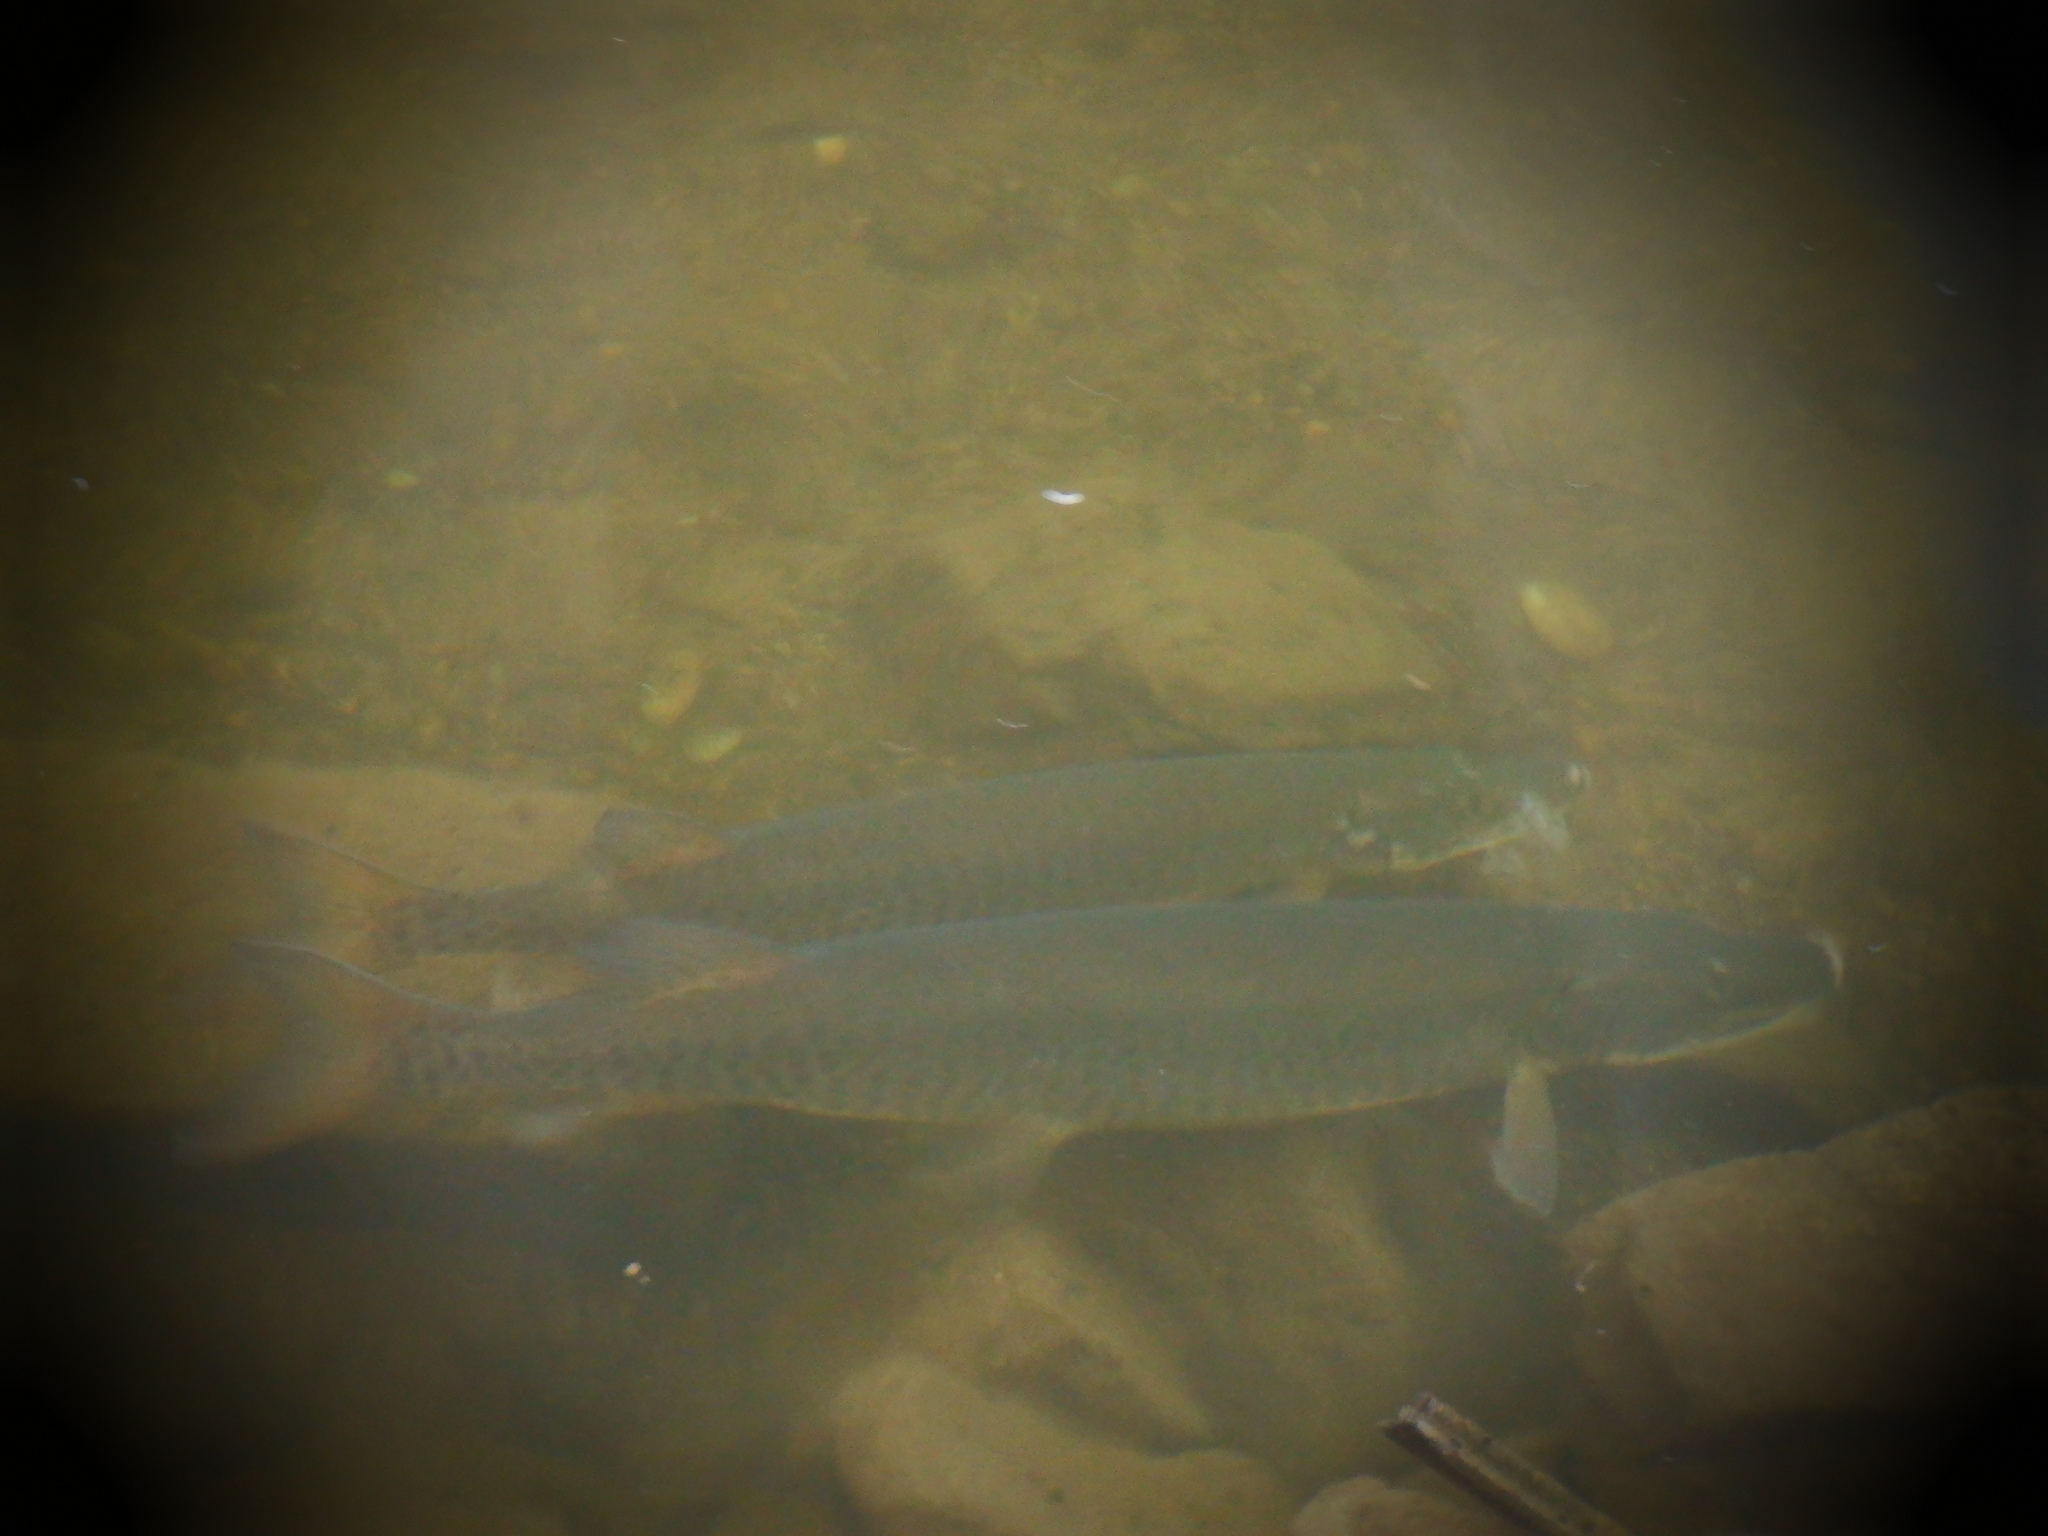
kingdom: Animalia
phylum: Chordata
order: Esociformes
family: Esocidae
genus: Esox
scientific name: Esox masquinongy
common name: Muskellunge
